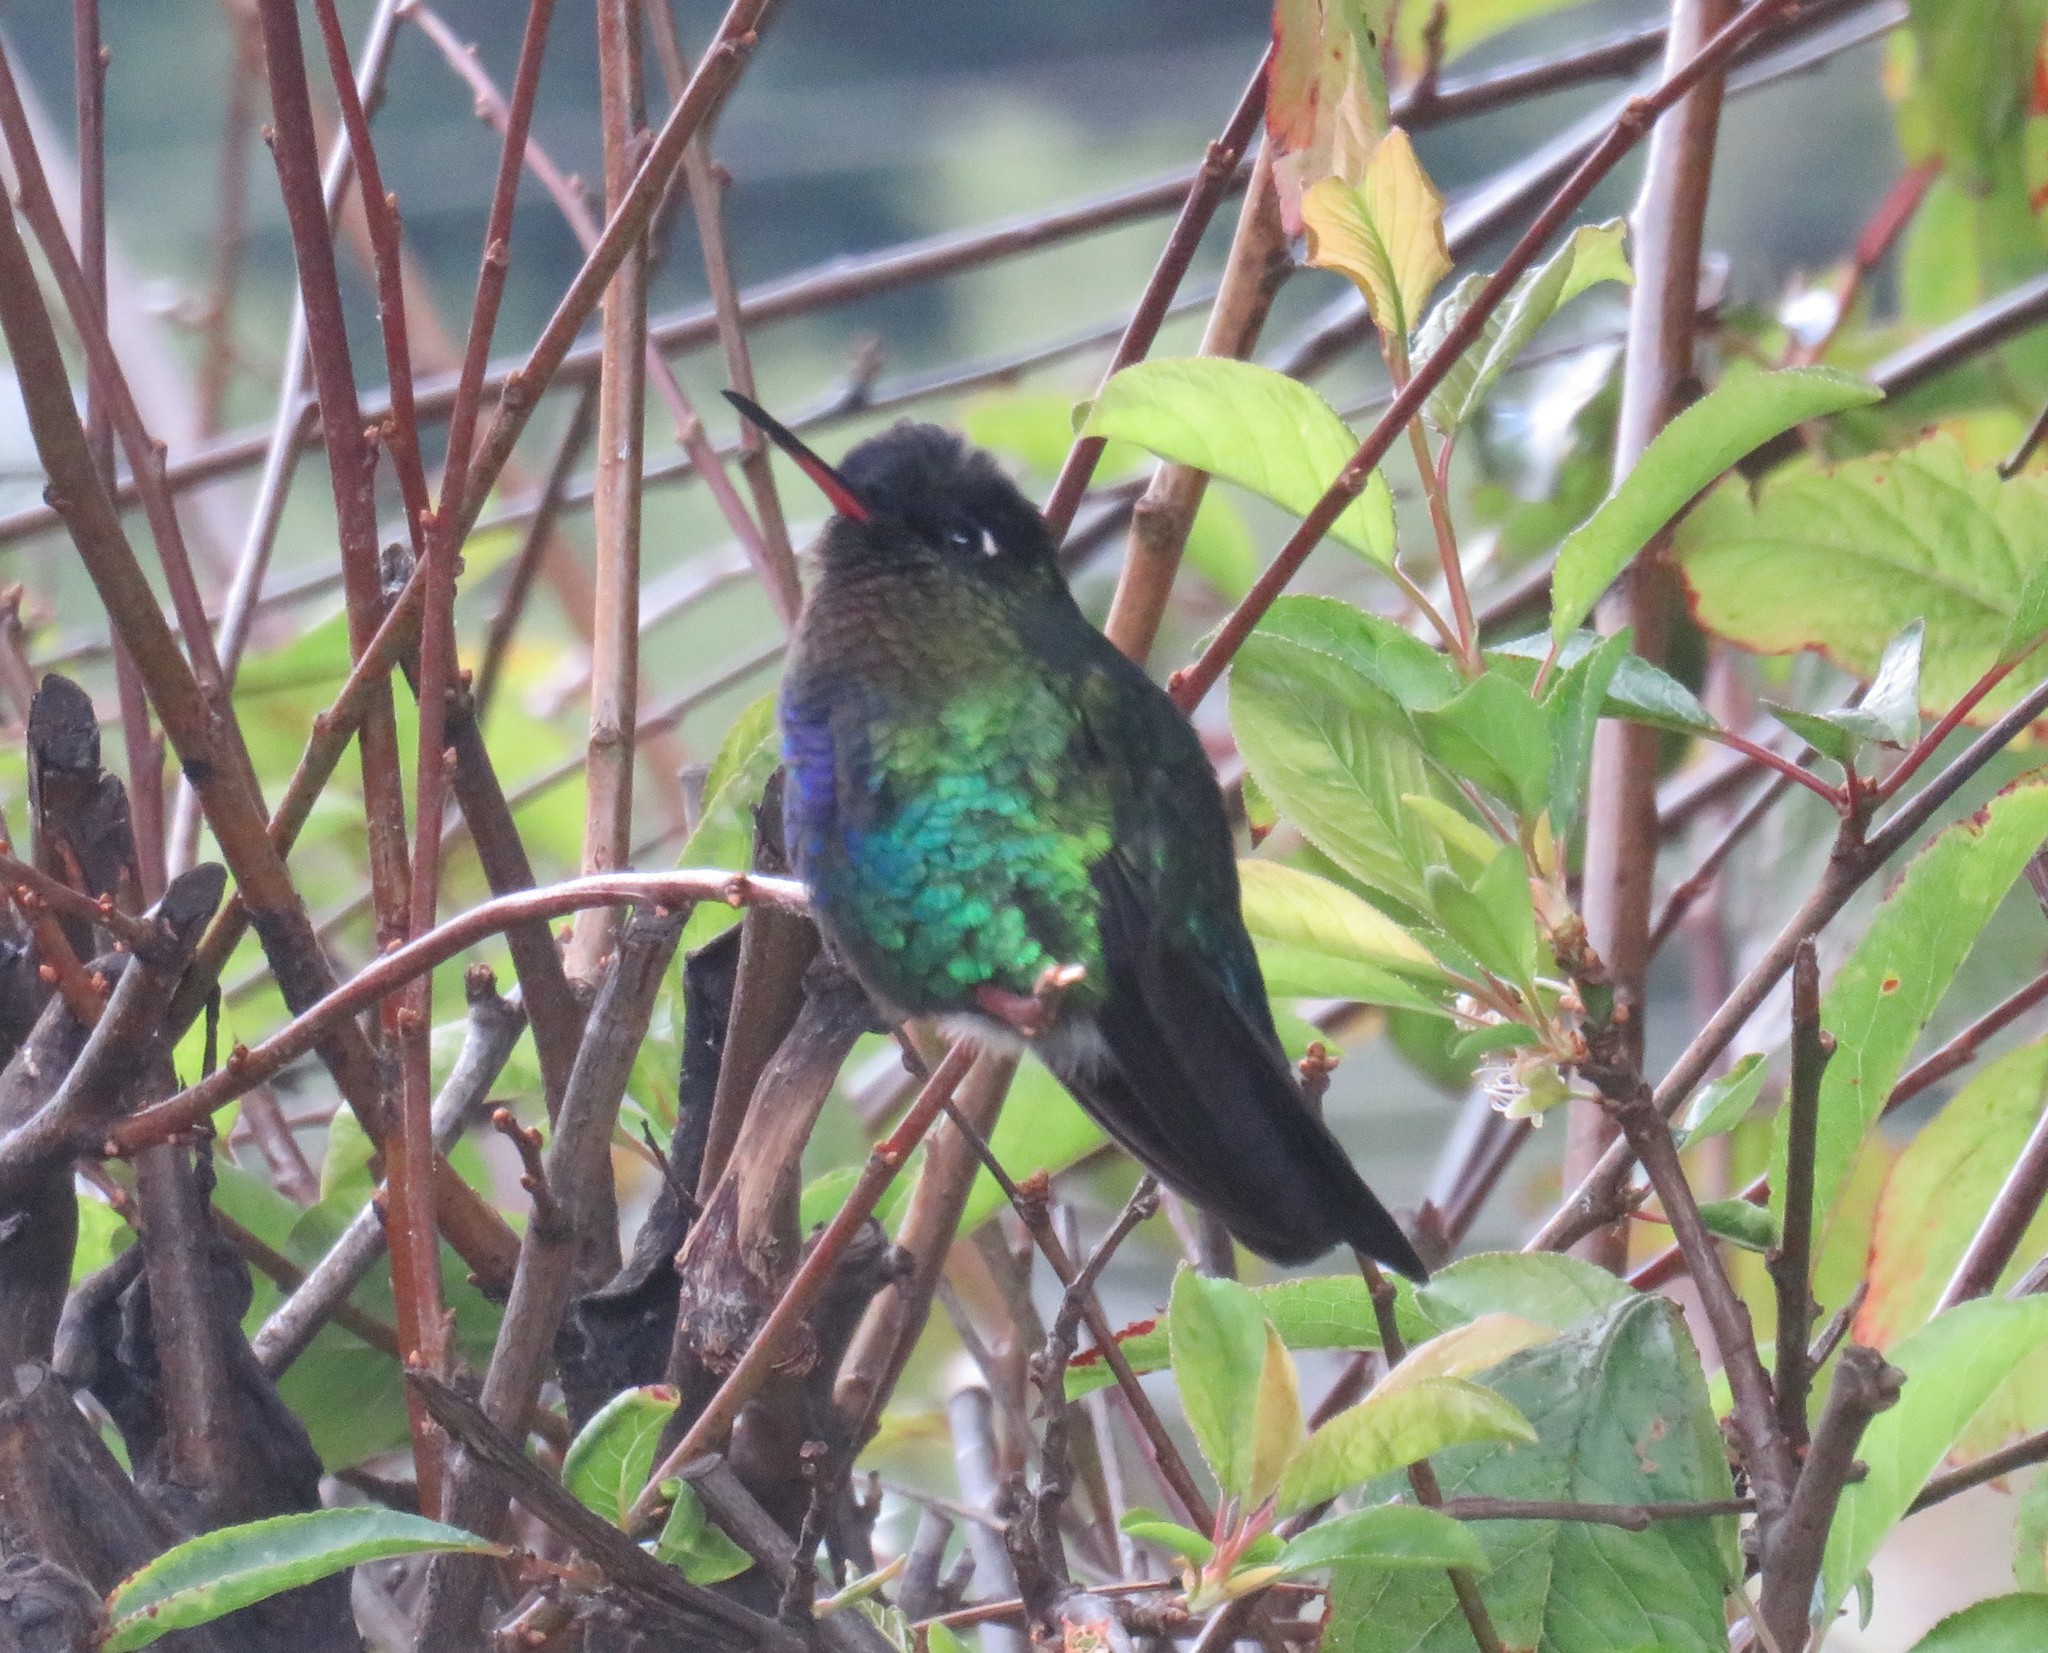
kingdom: Animalia
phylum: Chordata
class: Aves
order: Apodiformes
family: Trochilidae
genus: Panterpe
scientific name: Panterpe insignis
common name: Fiery-throated hummingbird
